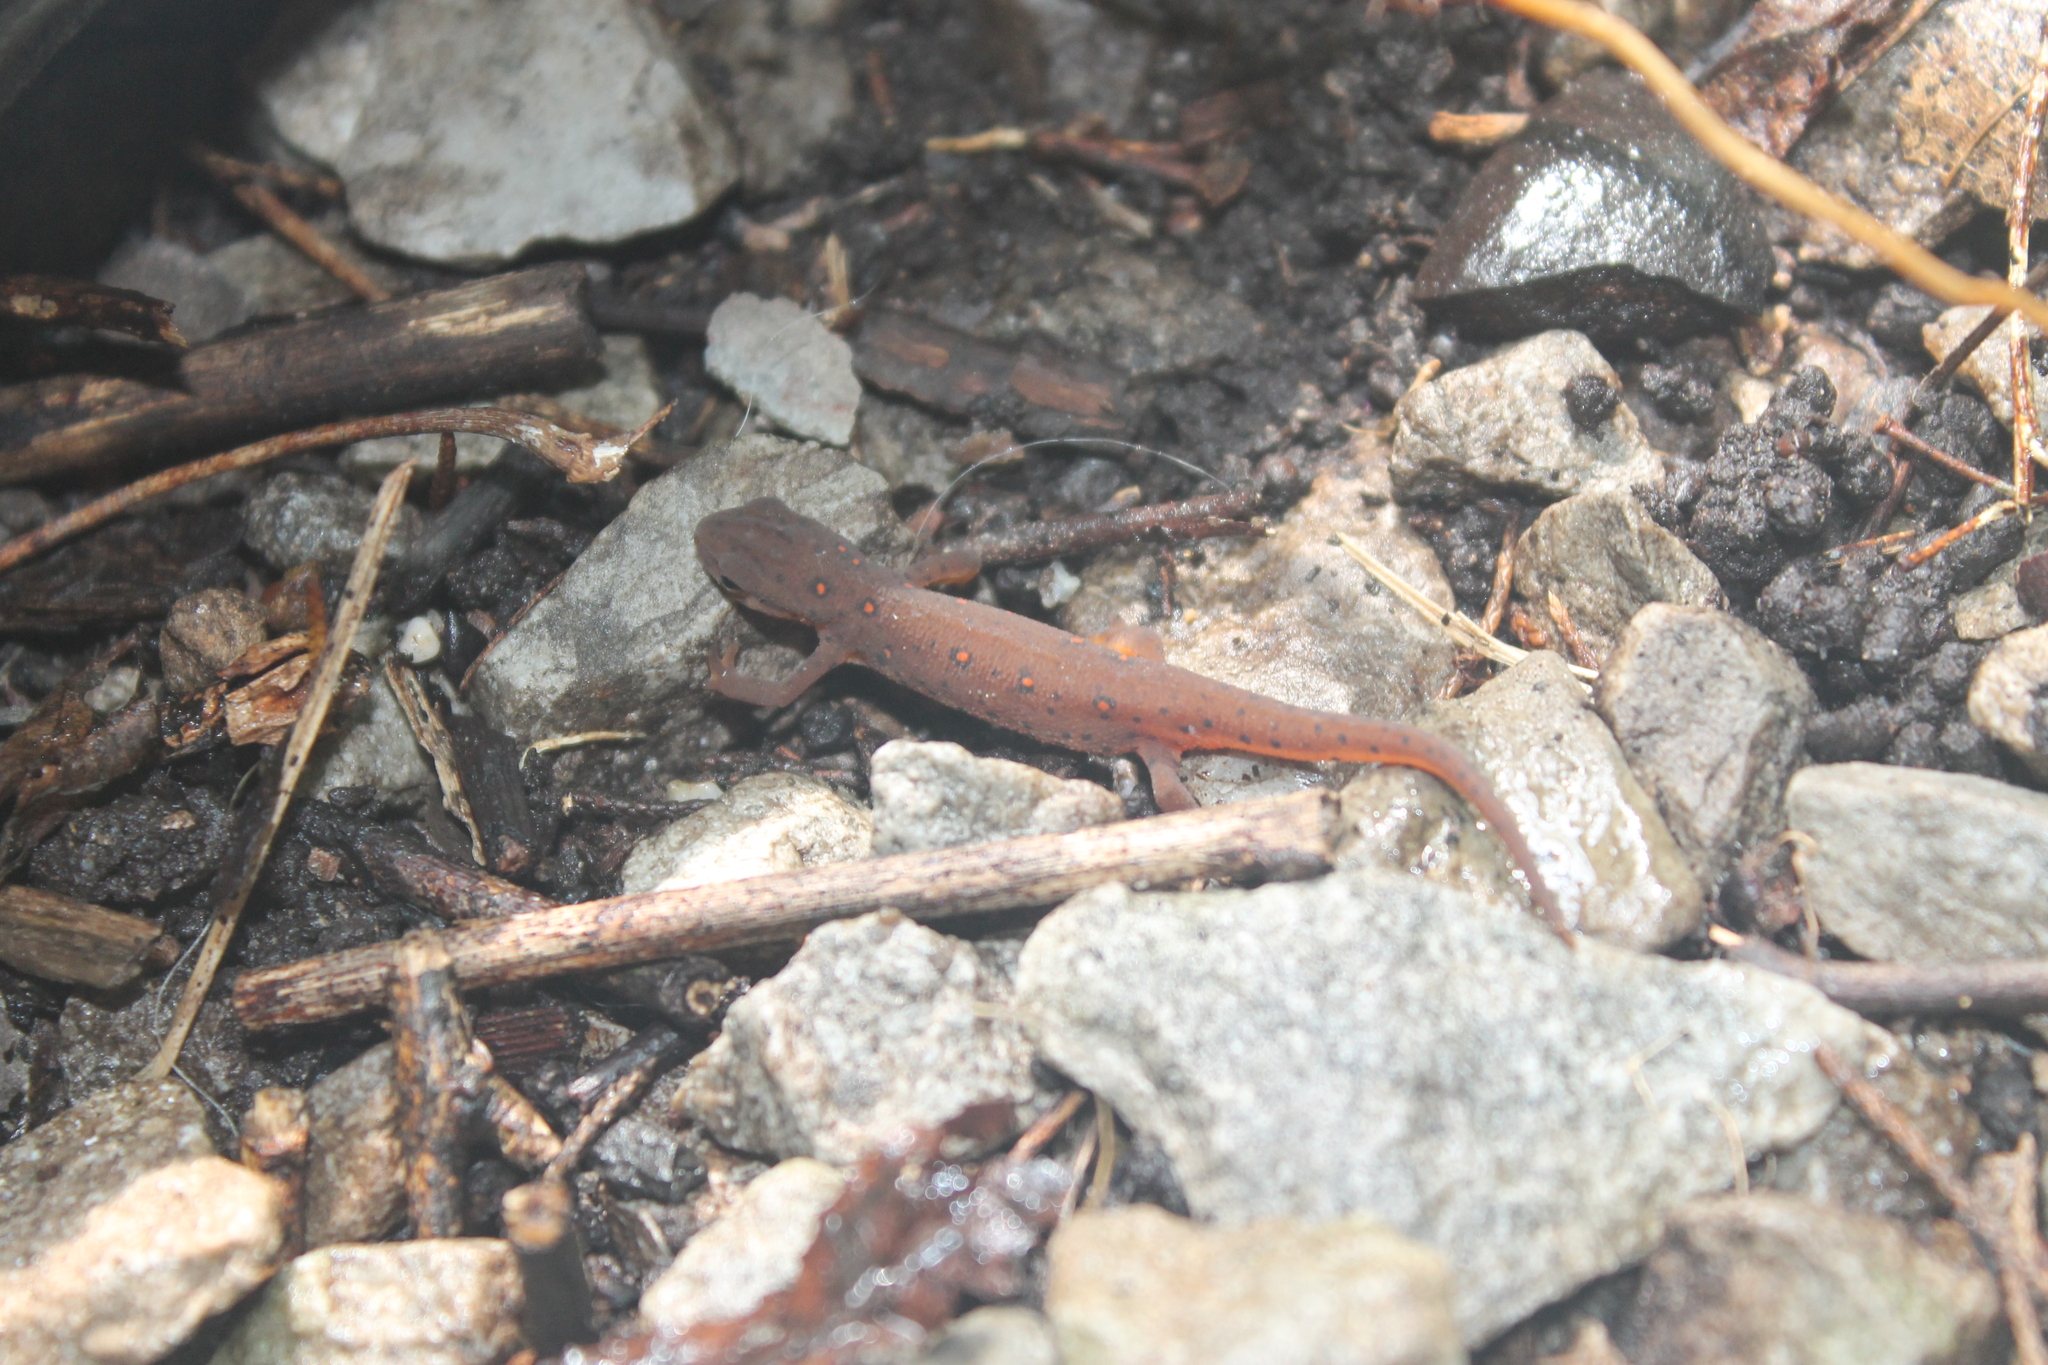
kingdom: Animalia
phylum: Chordata
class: Amphibia
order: Caudata
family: Salamandridae
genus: Notophthalmus
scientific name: Notophthalmus viridescens
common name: Eastern newt
